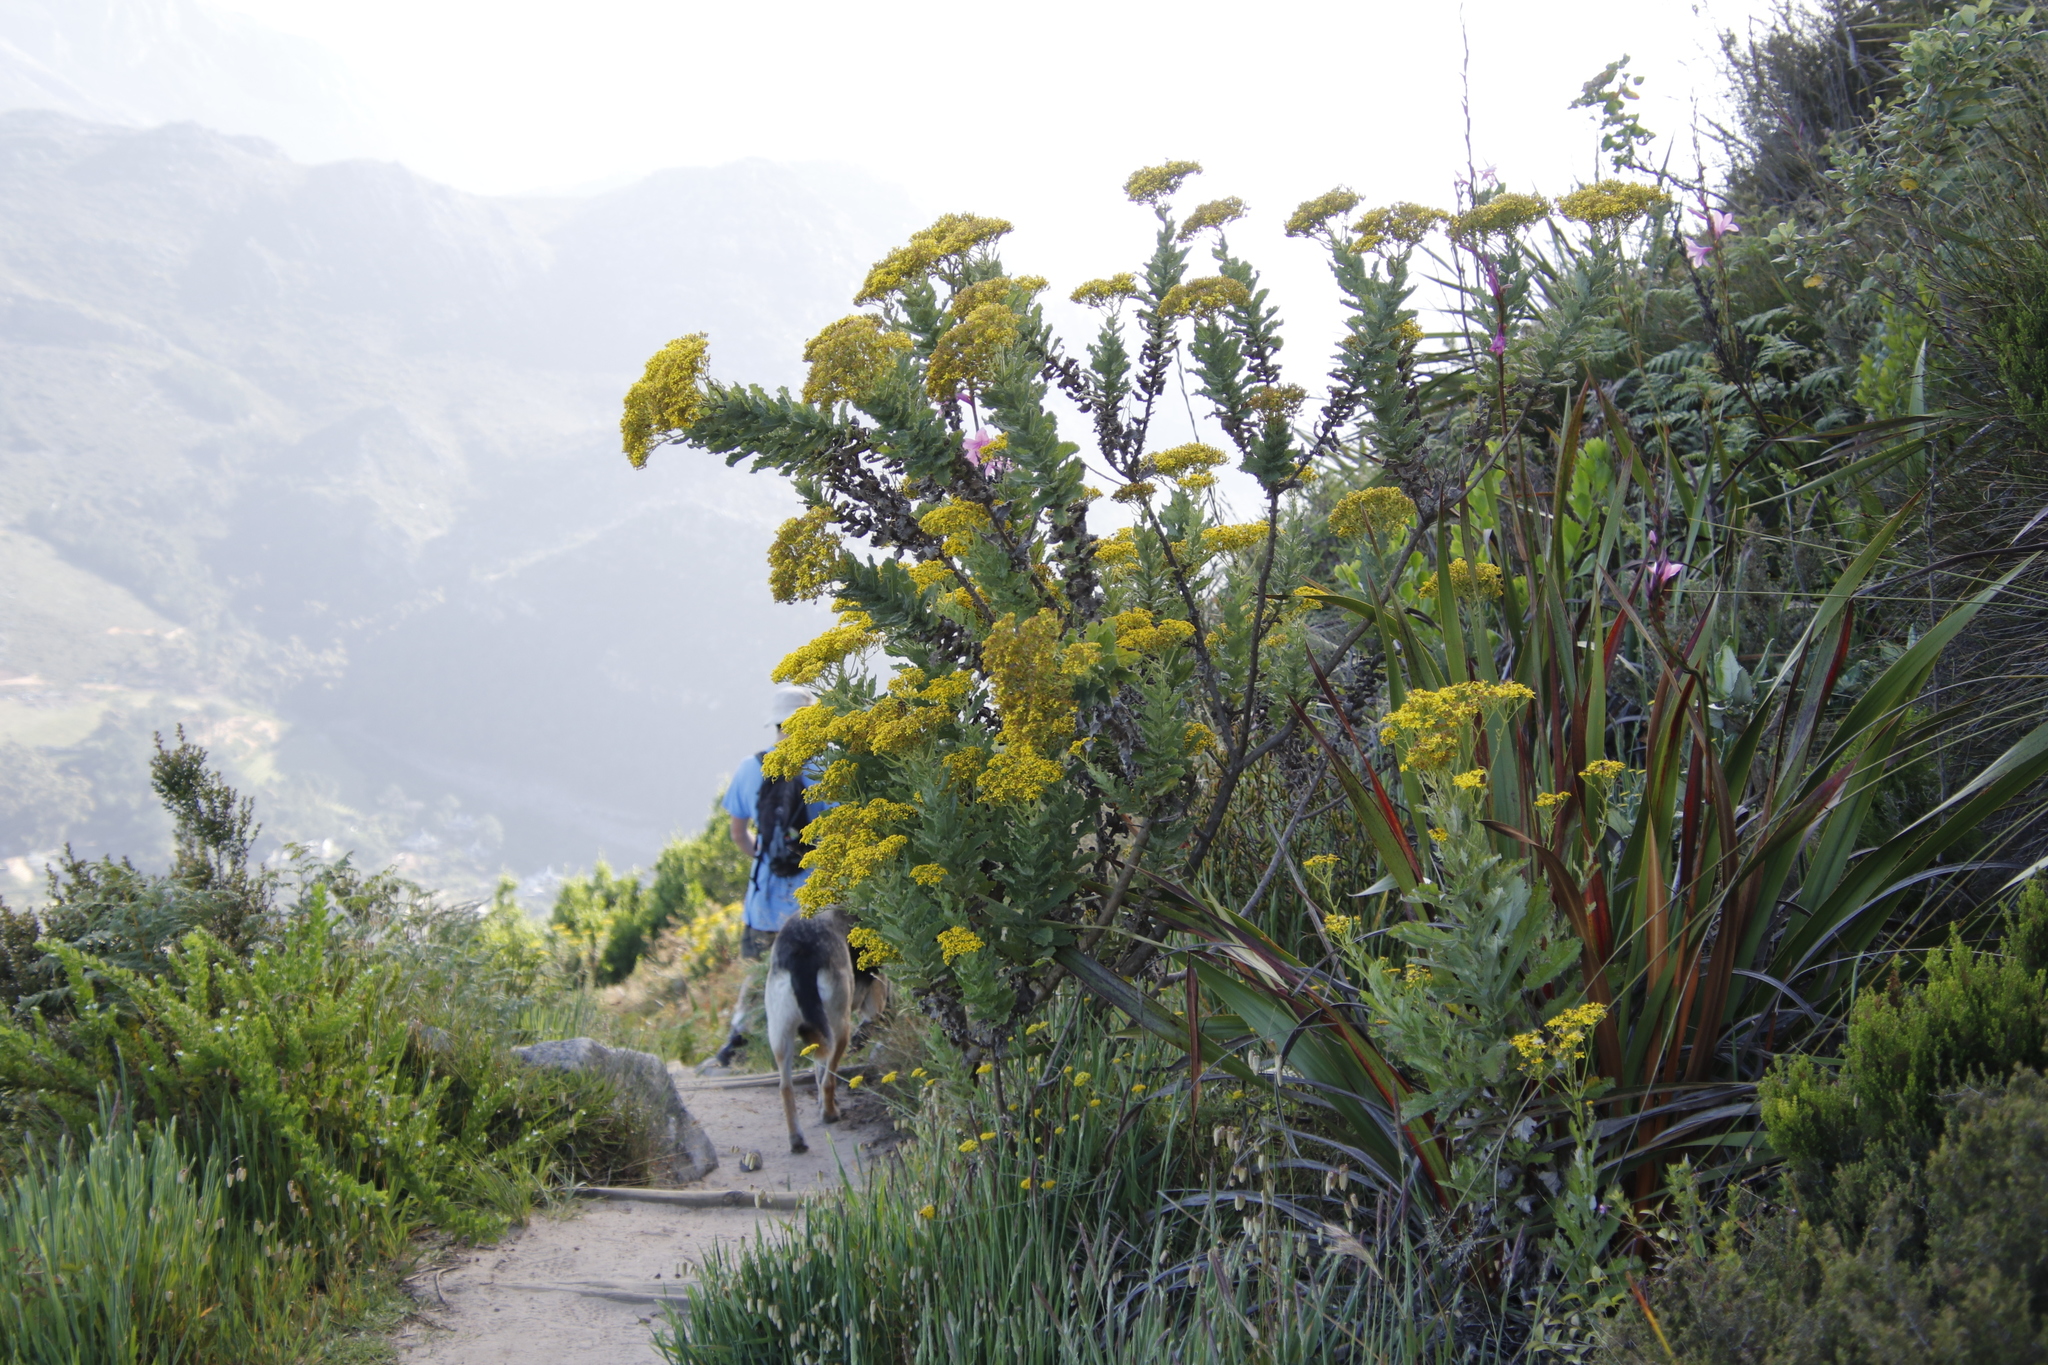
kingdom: Plantae
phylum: Tracheophyta
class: Magnoliopsida
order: Asterales
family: Asteraceae
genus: Senecio
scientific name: Senecio rigidus
